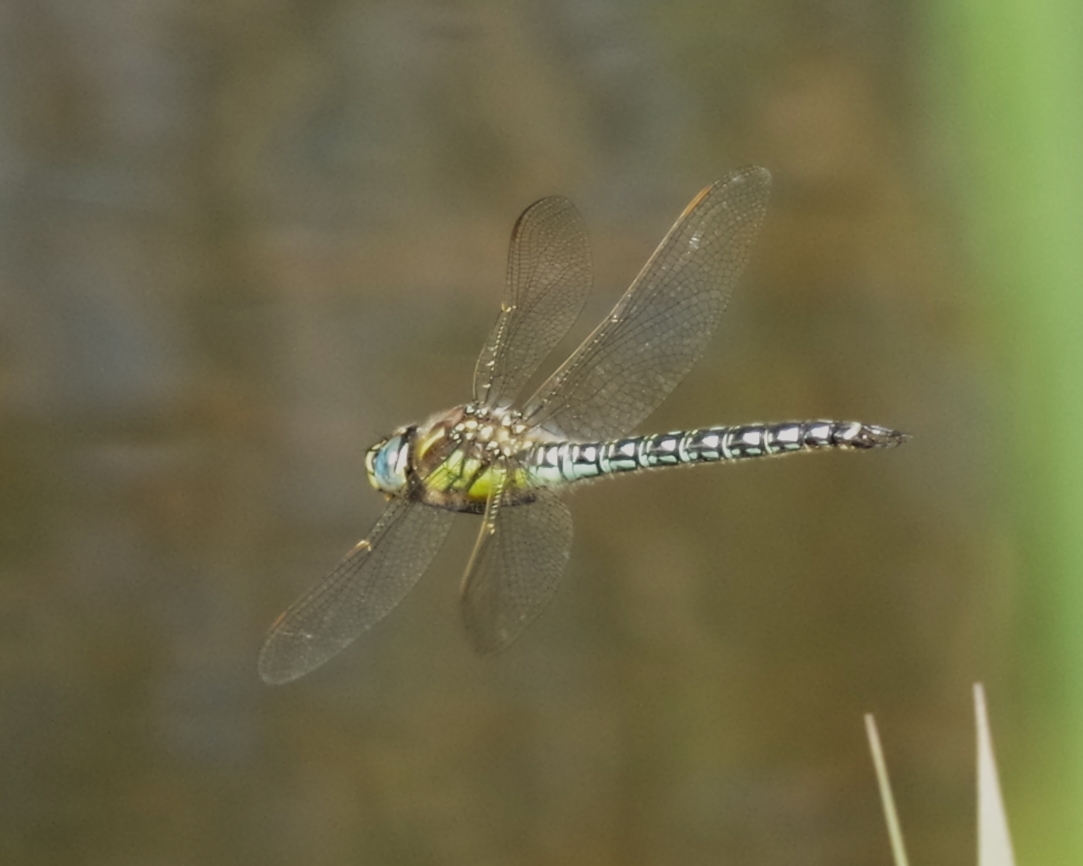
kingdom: Animalia
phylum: Arthropoda
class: Insecta
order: Odonata
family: Aeshnidae
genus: Brachytron
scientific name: Brachytron pratense
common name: Hairy hawker
